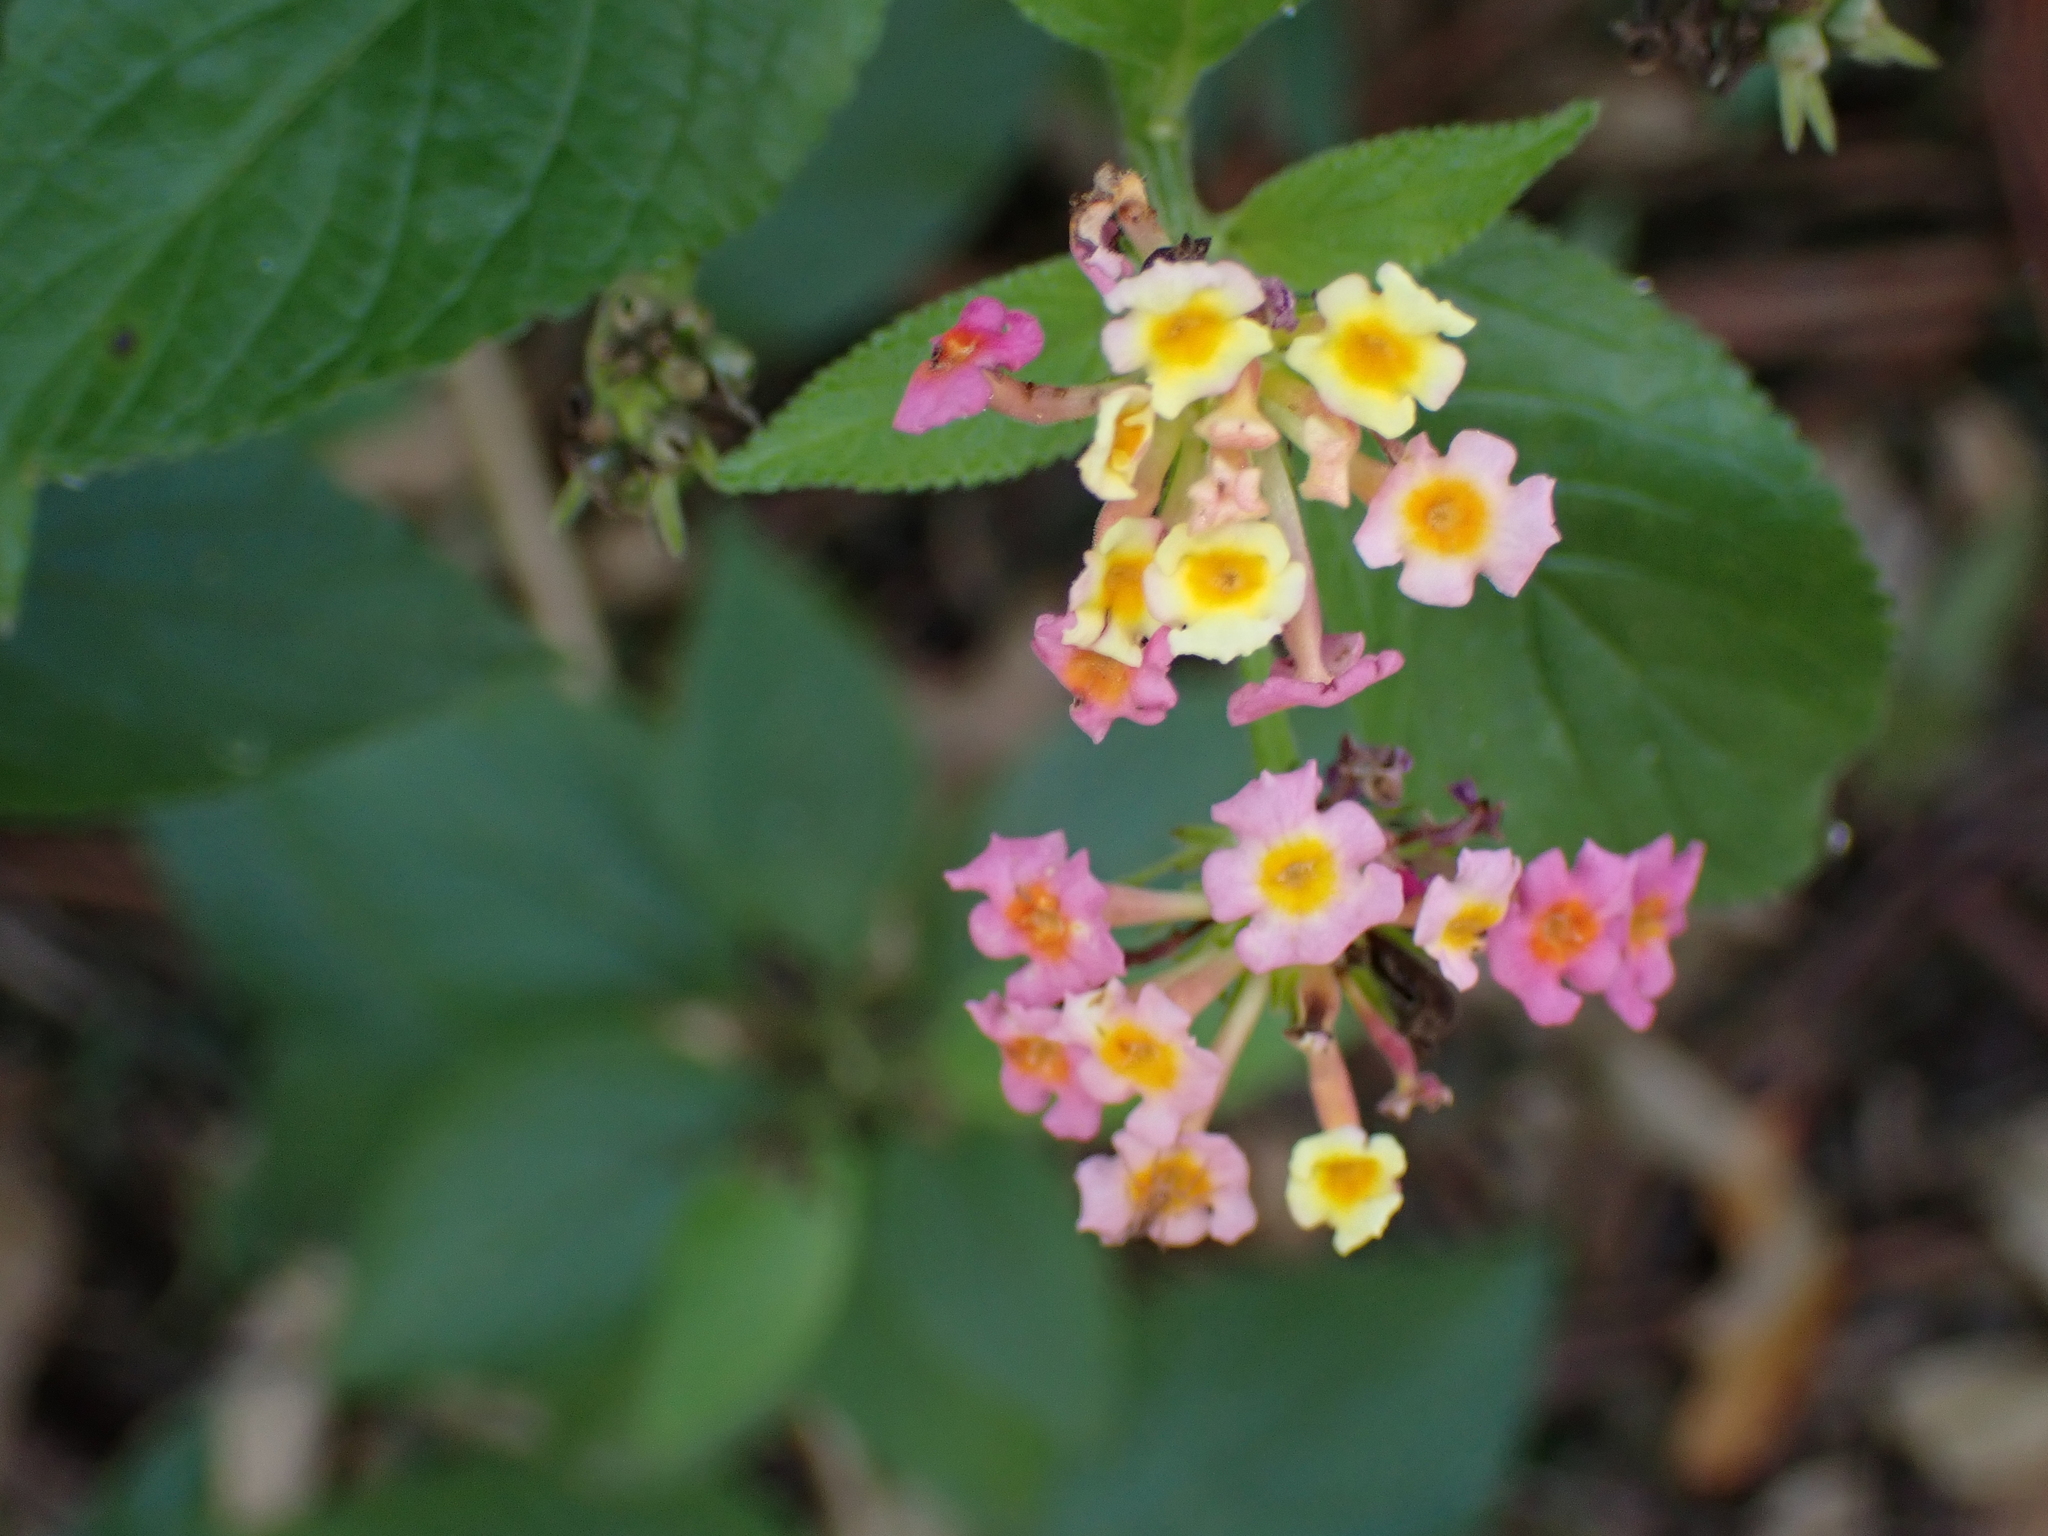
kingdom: Plantae
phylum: Tracheophyta
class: Magnoliopsida
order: Lamiales
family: Verbenaceae
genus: Lantana
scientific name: Lantana camara
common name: Lantana
